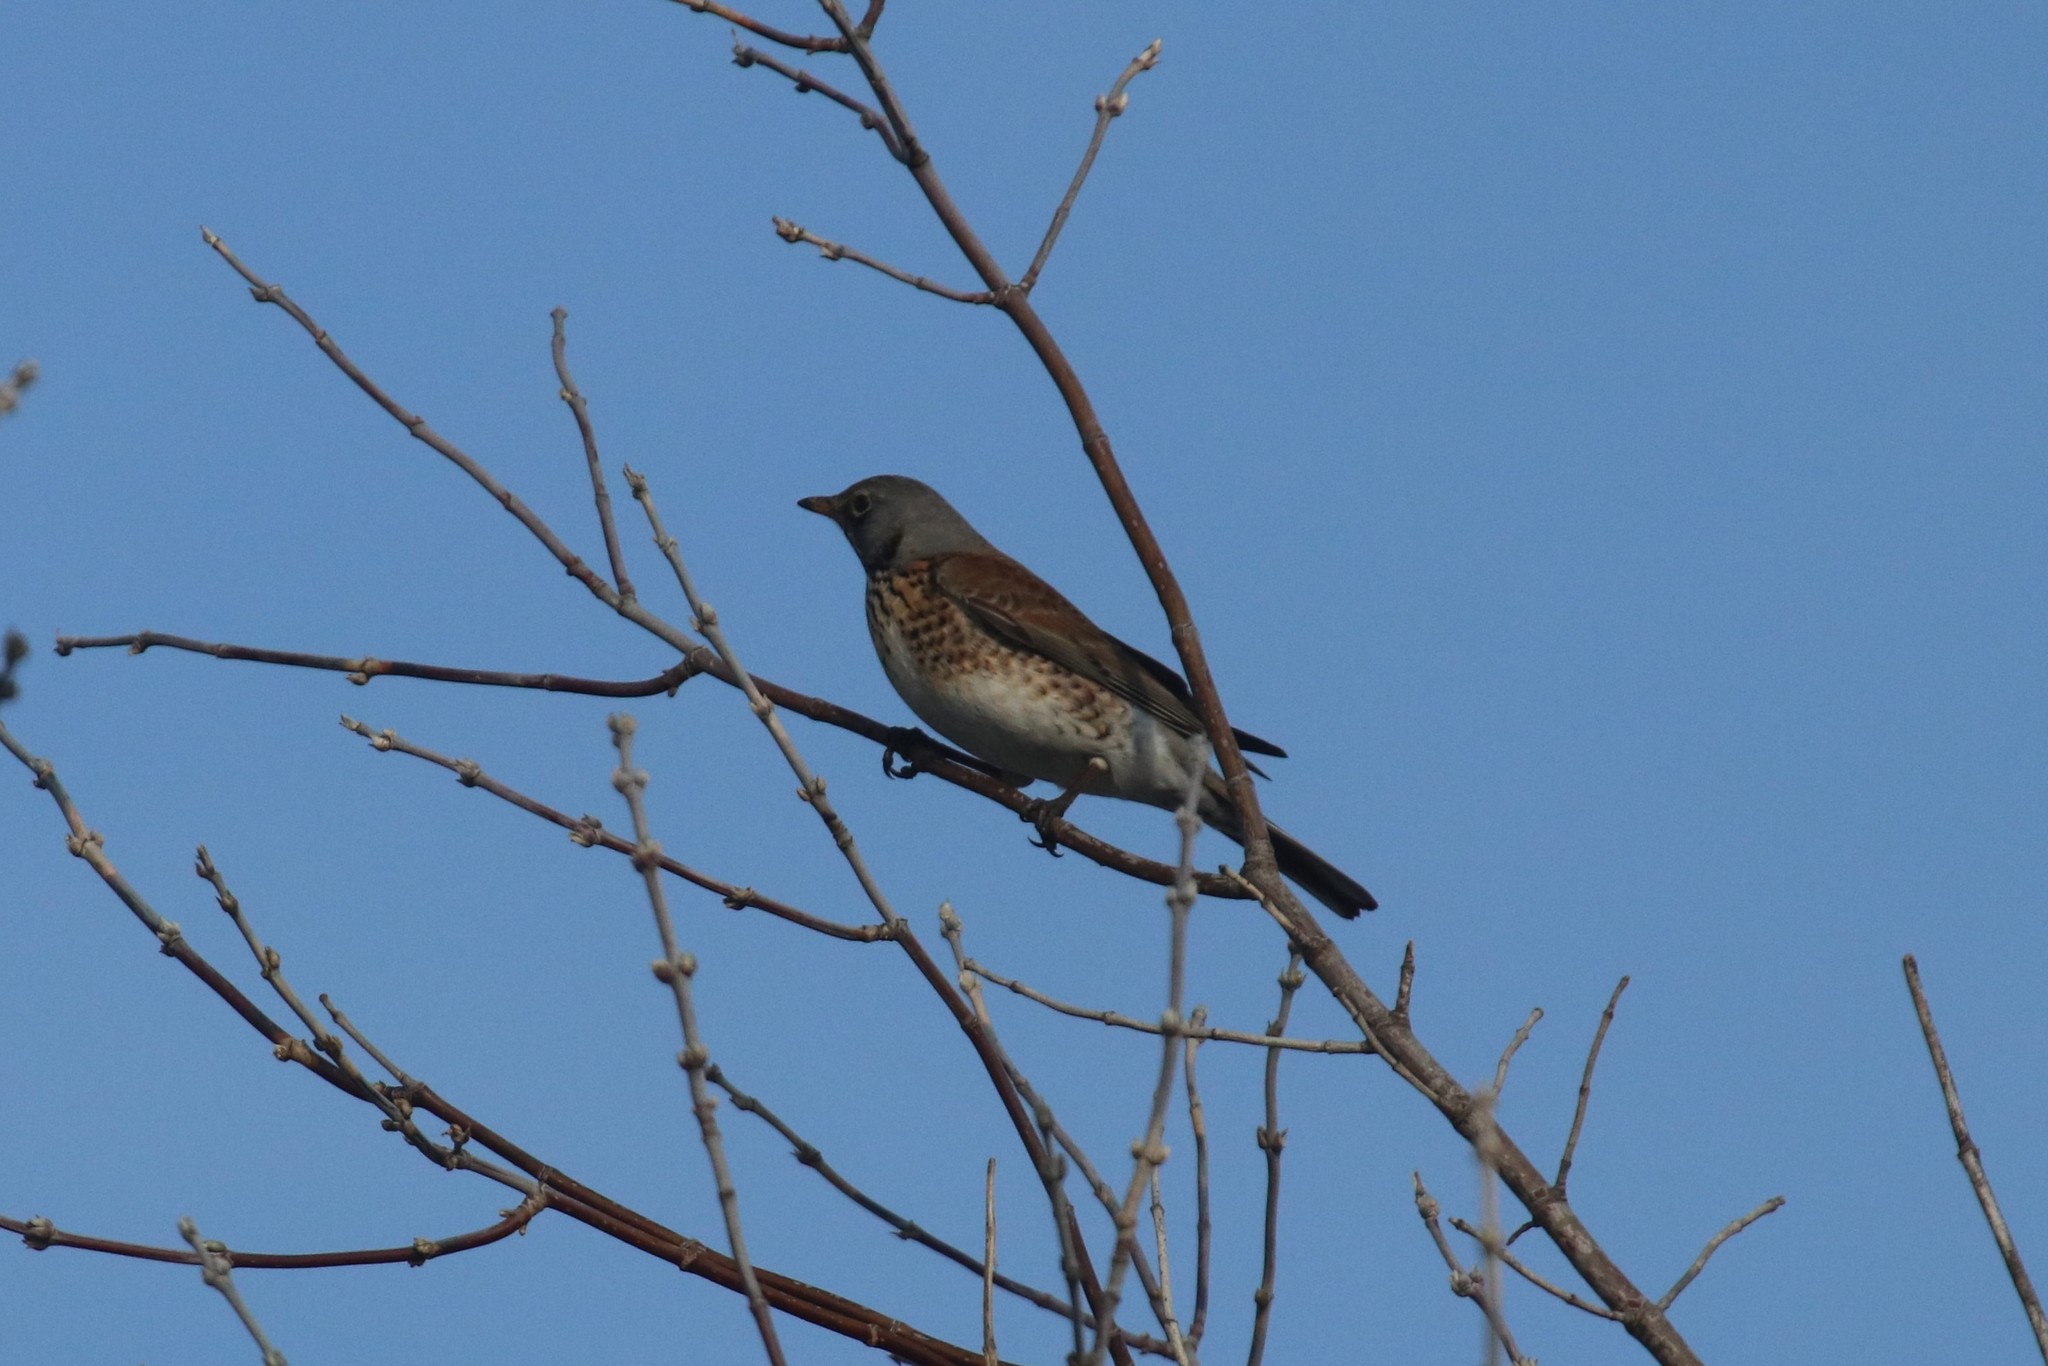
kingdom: Animalia
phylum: Chordata
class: Aves
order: Passeriformes
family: Turdidae
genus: Turdus
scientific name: Turdus pilaris
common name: Fieldfare
